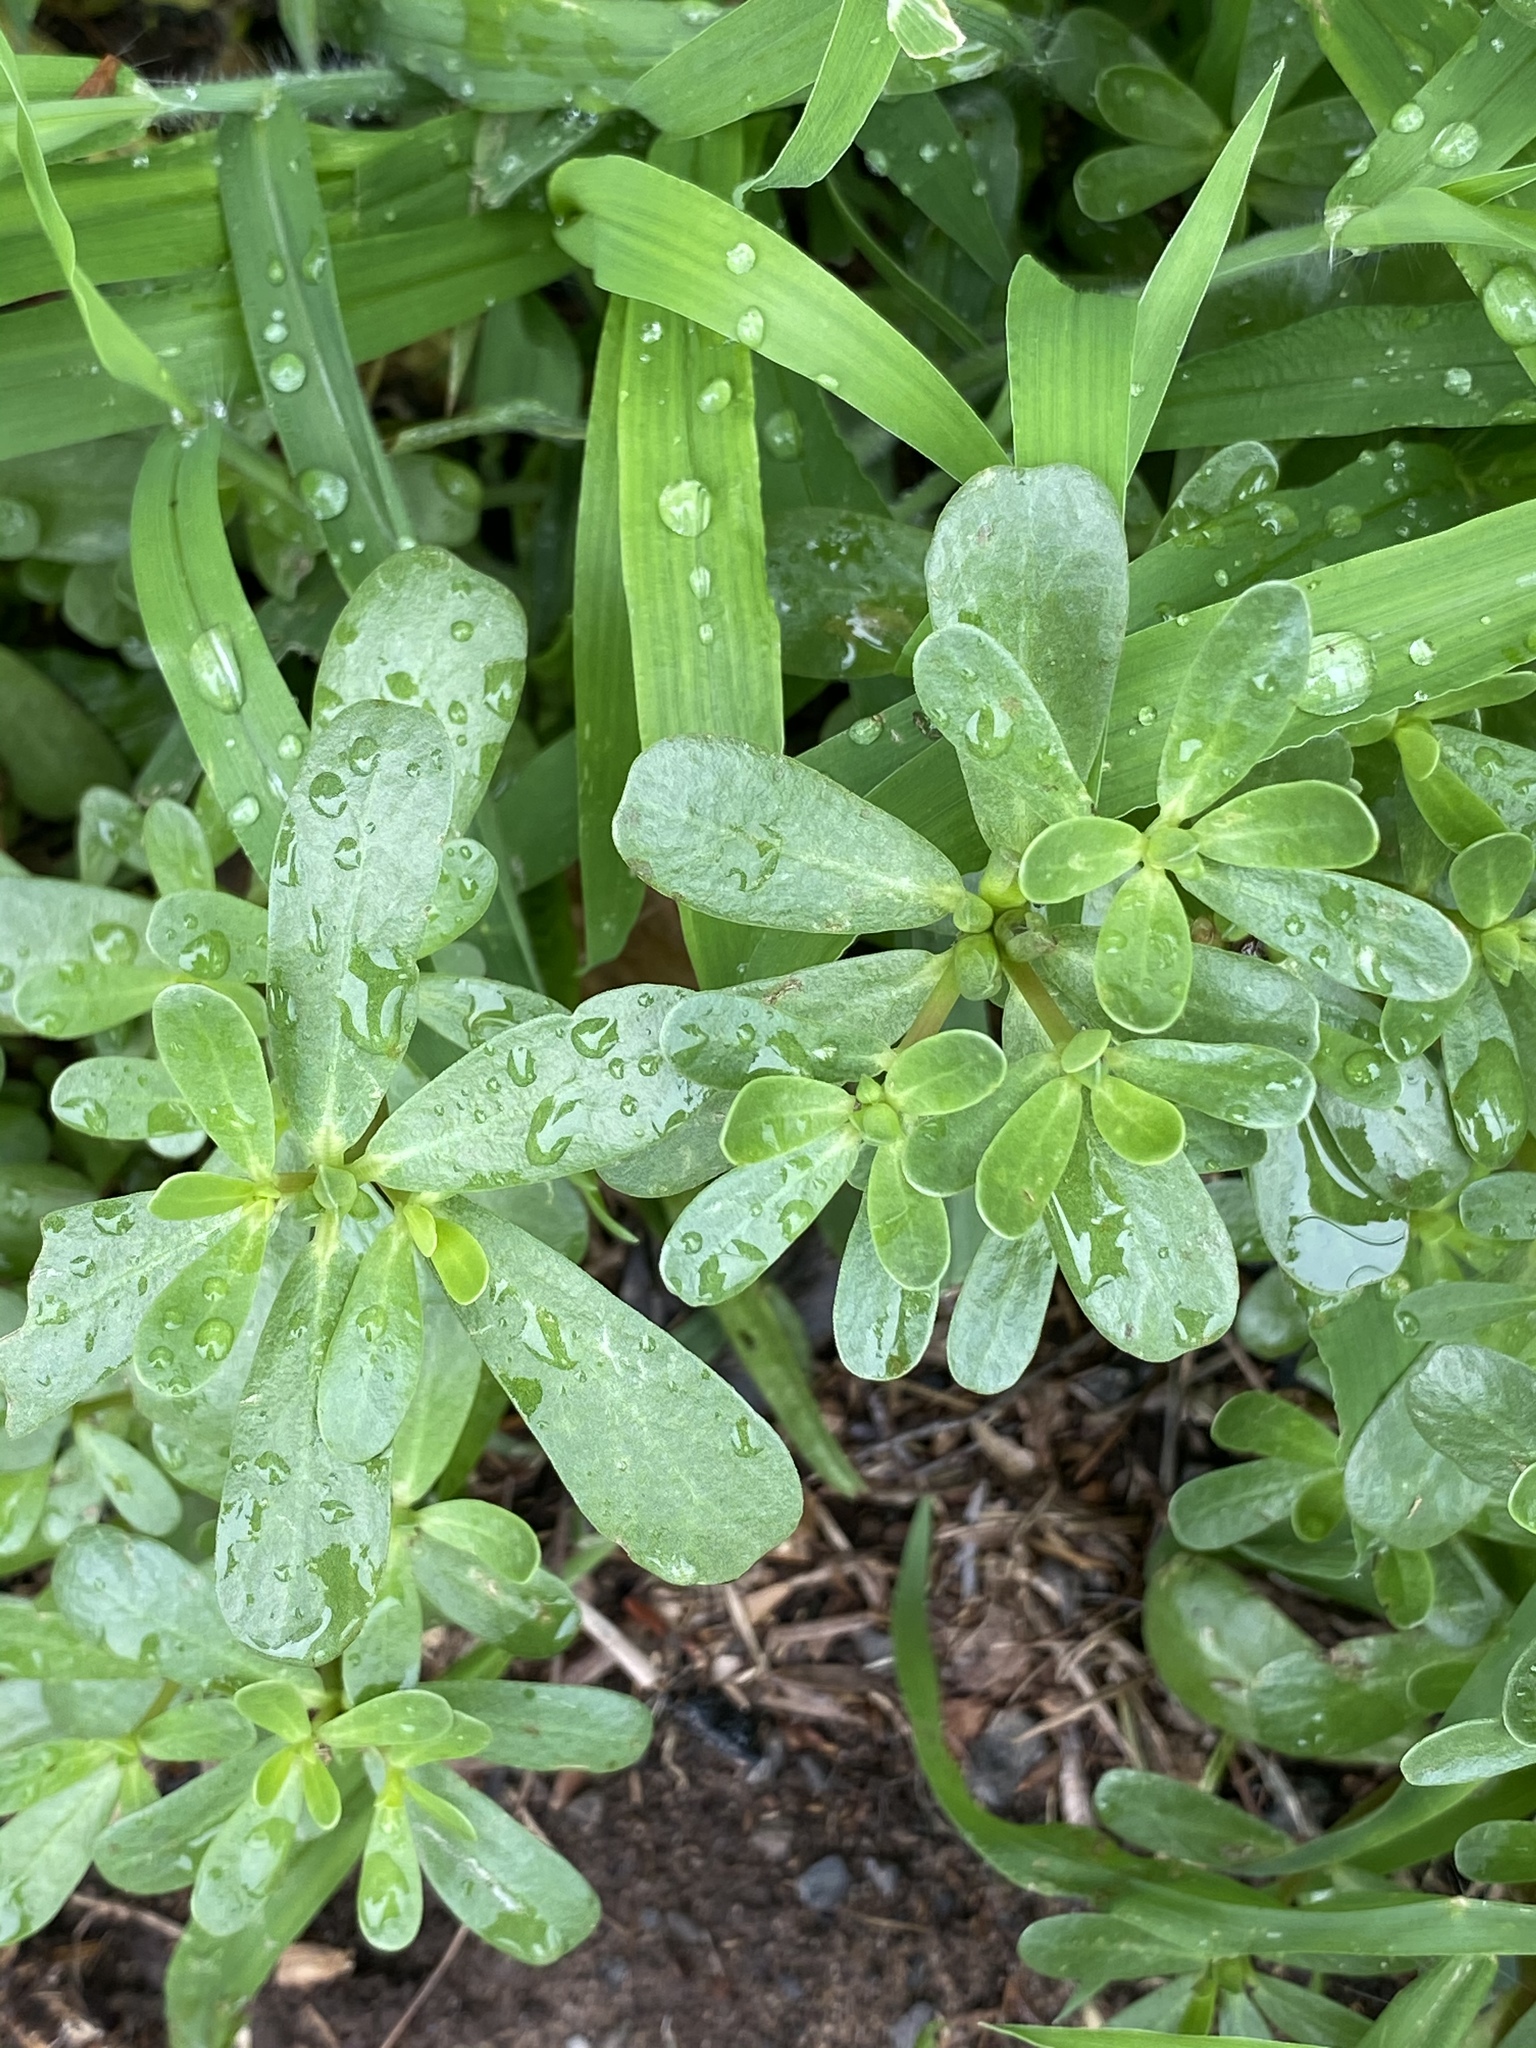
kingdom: Plantae
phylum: Tracheophyta
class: Magnoliopsida
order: Caryophyllales
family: Portulacaceae
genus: Portulaca
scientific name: Portulaca oleracea
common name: Common purslane
